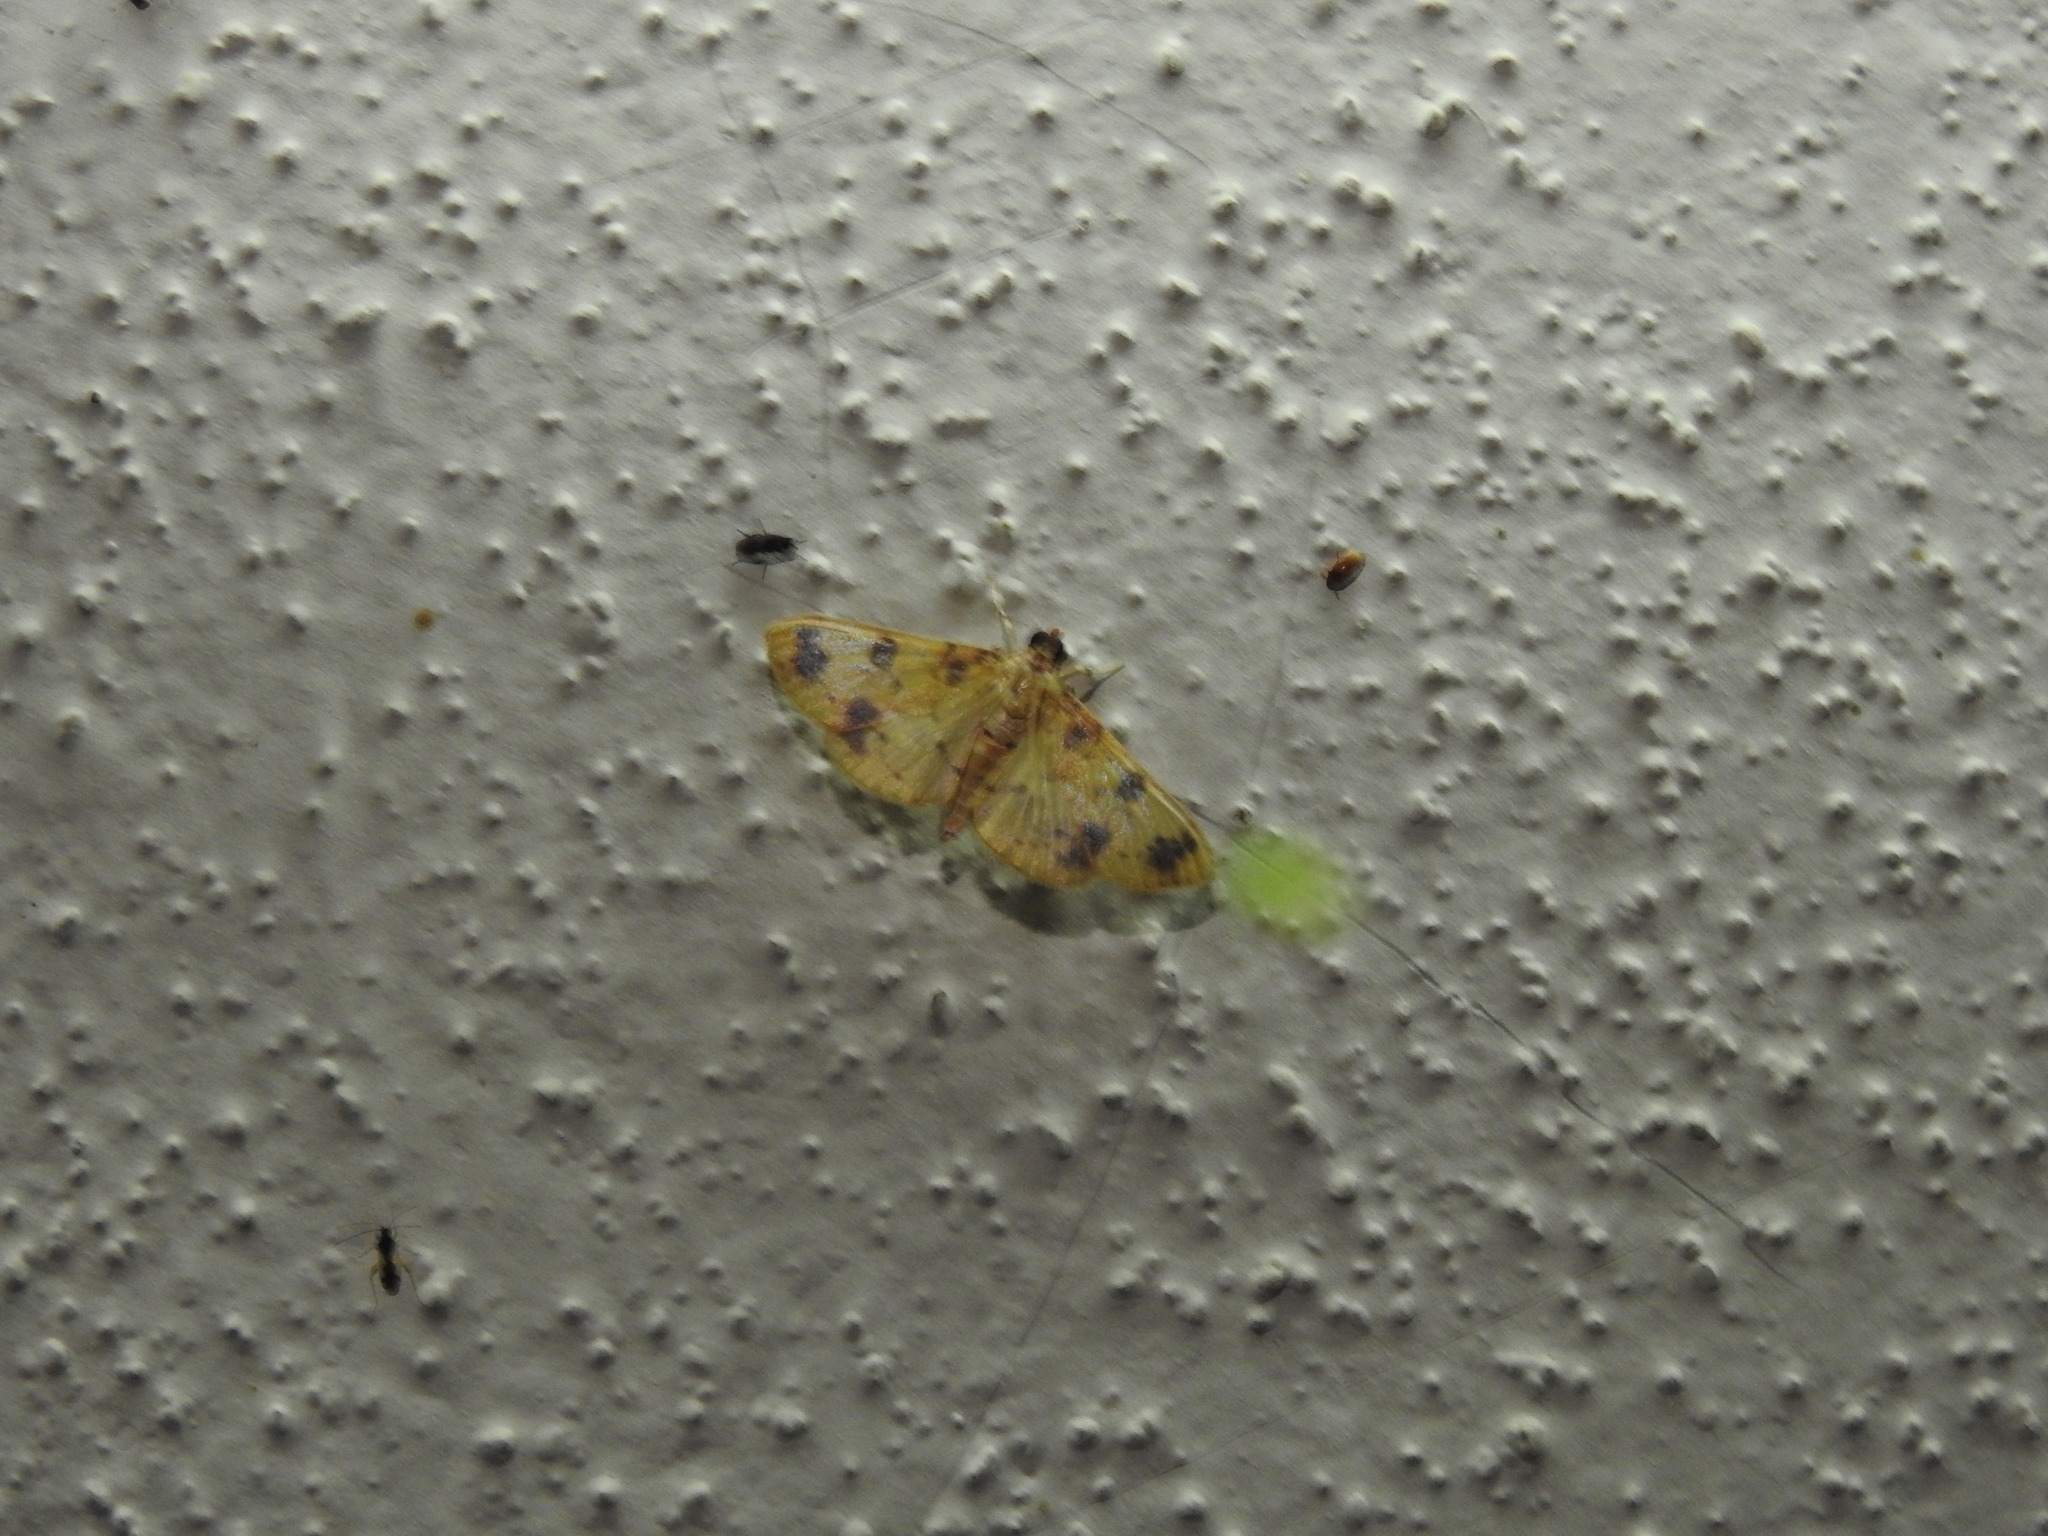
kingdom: Animalia
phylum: Arthropoda
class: Insecta
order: Lepidoptera
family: Crambidae
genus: Patania
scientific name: Patania
